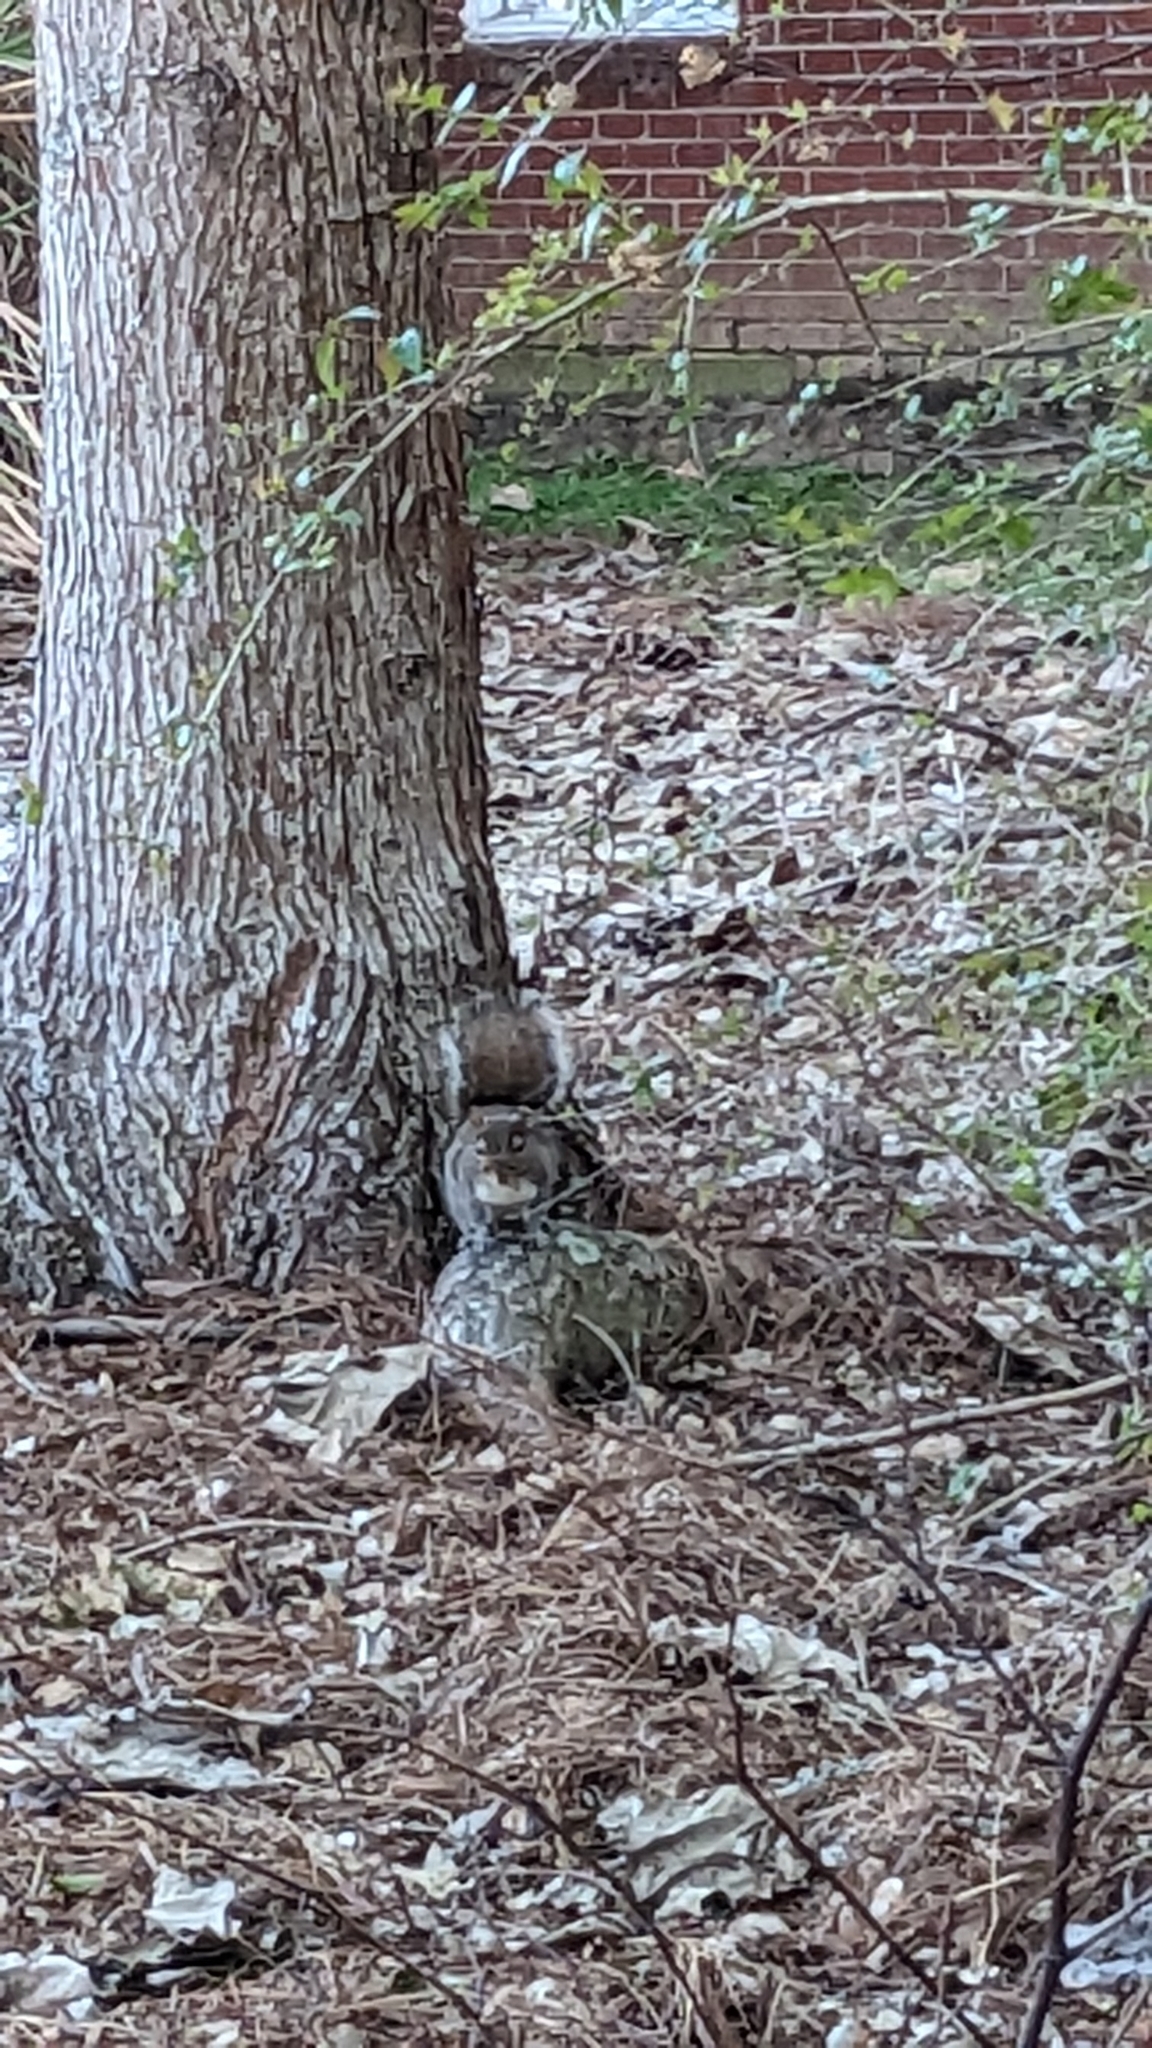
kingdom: Animalia
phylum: Chordata
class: Mammalia
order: Rodentia
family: Sciuridae
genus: Sciurus
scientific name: Sciurus carolinensis
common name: Eastern gray squirrel
